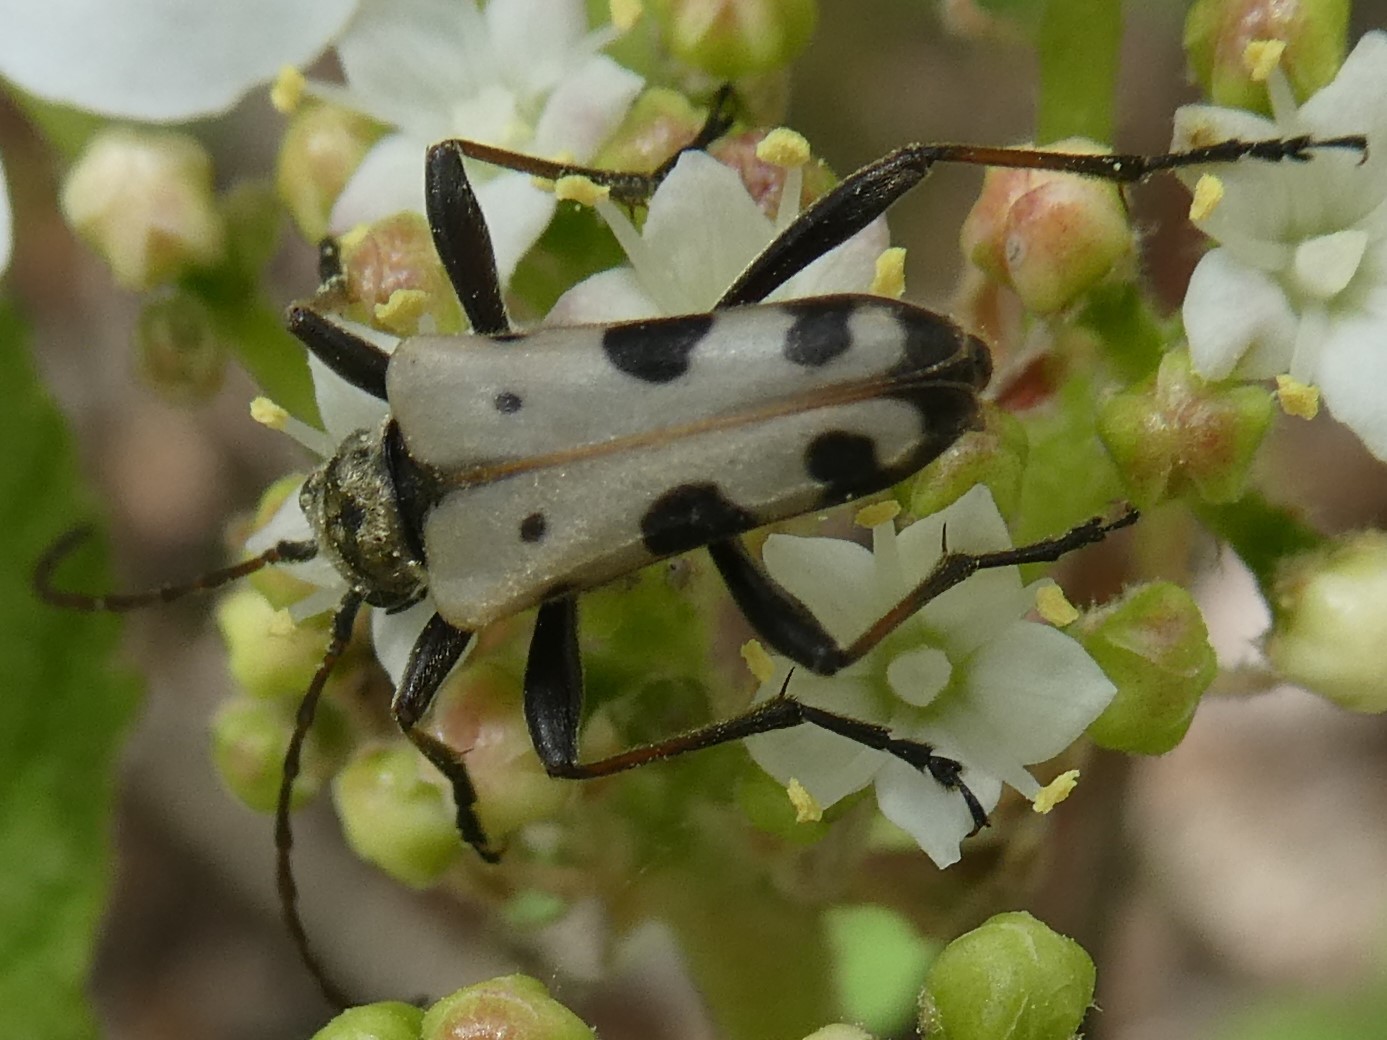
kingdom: Animalia
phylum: Arthropoda
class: Insecta
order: Coleoptera
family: Cerambycidae
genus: Evodinus
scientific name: Evodinus monticola
